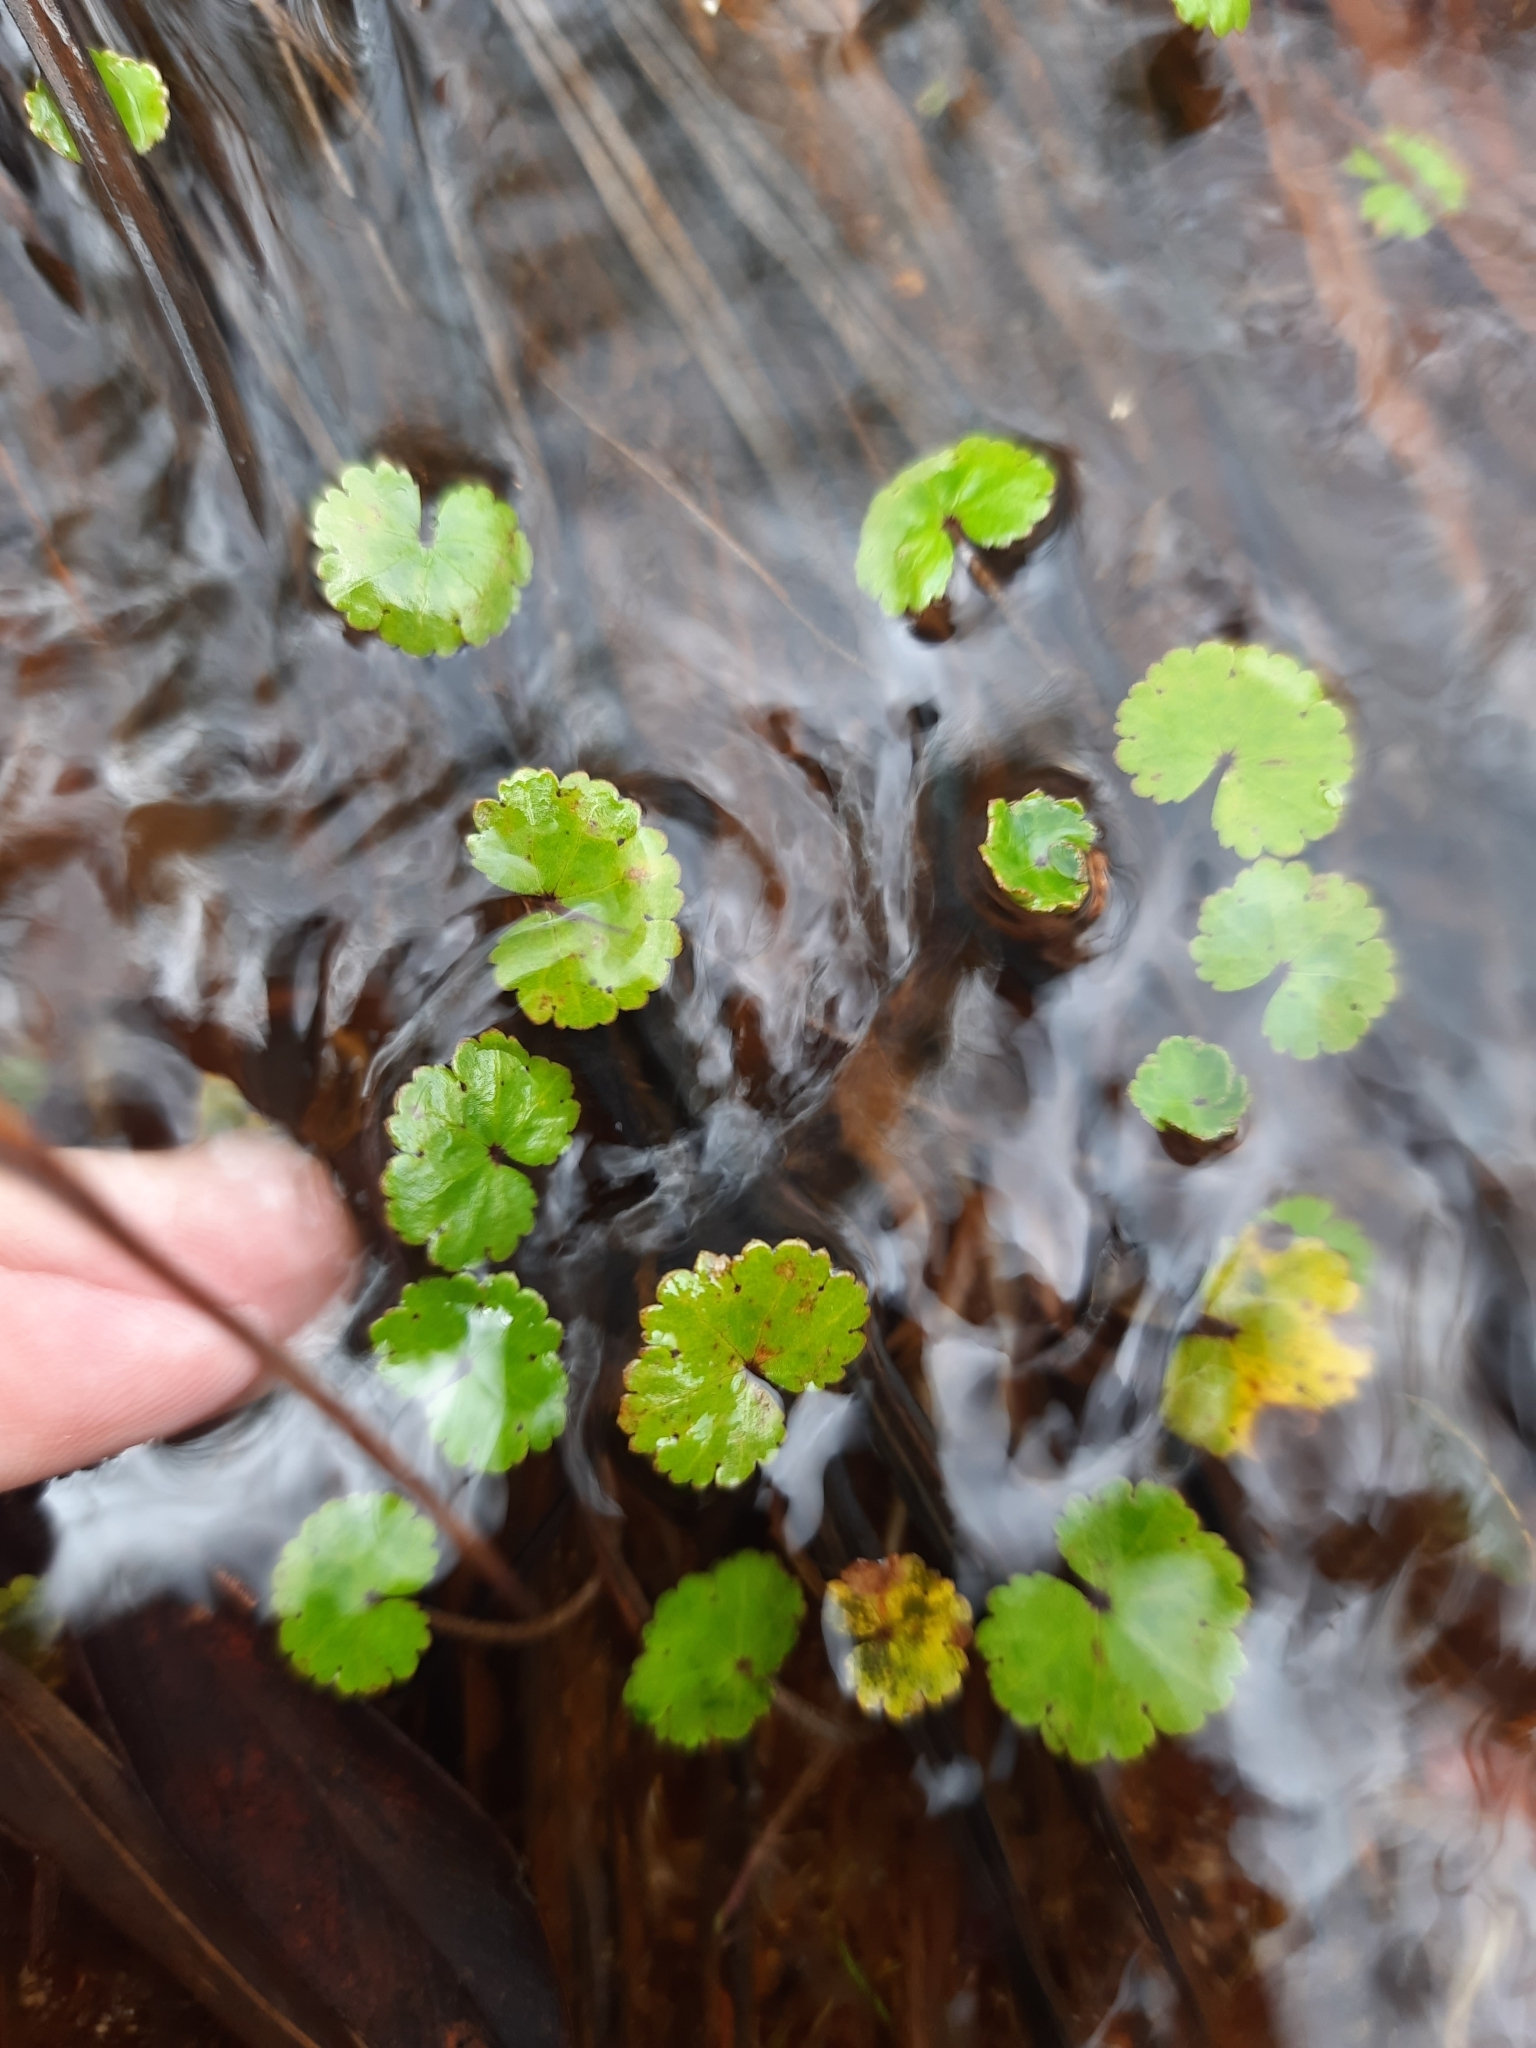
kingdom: Plantae
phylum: Tracheophyta
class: Magnoliopsida
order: Apiales
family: Araliaceae
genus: Hydrocotyle
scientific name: Hydrocotyle moschata
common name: Hairy pennywort
